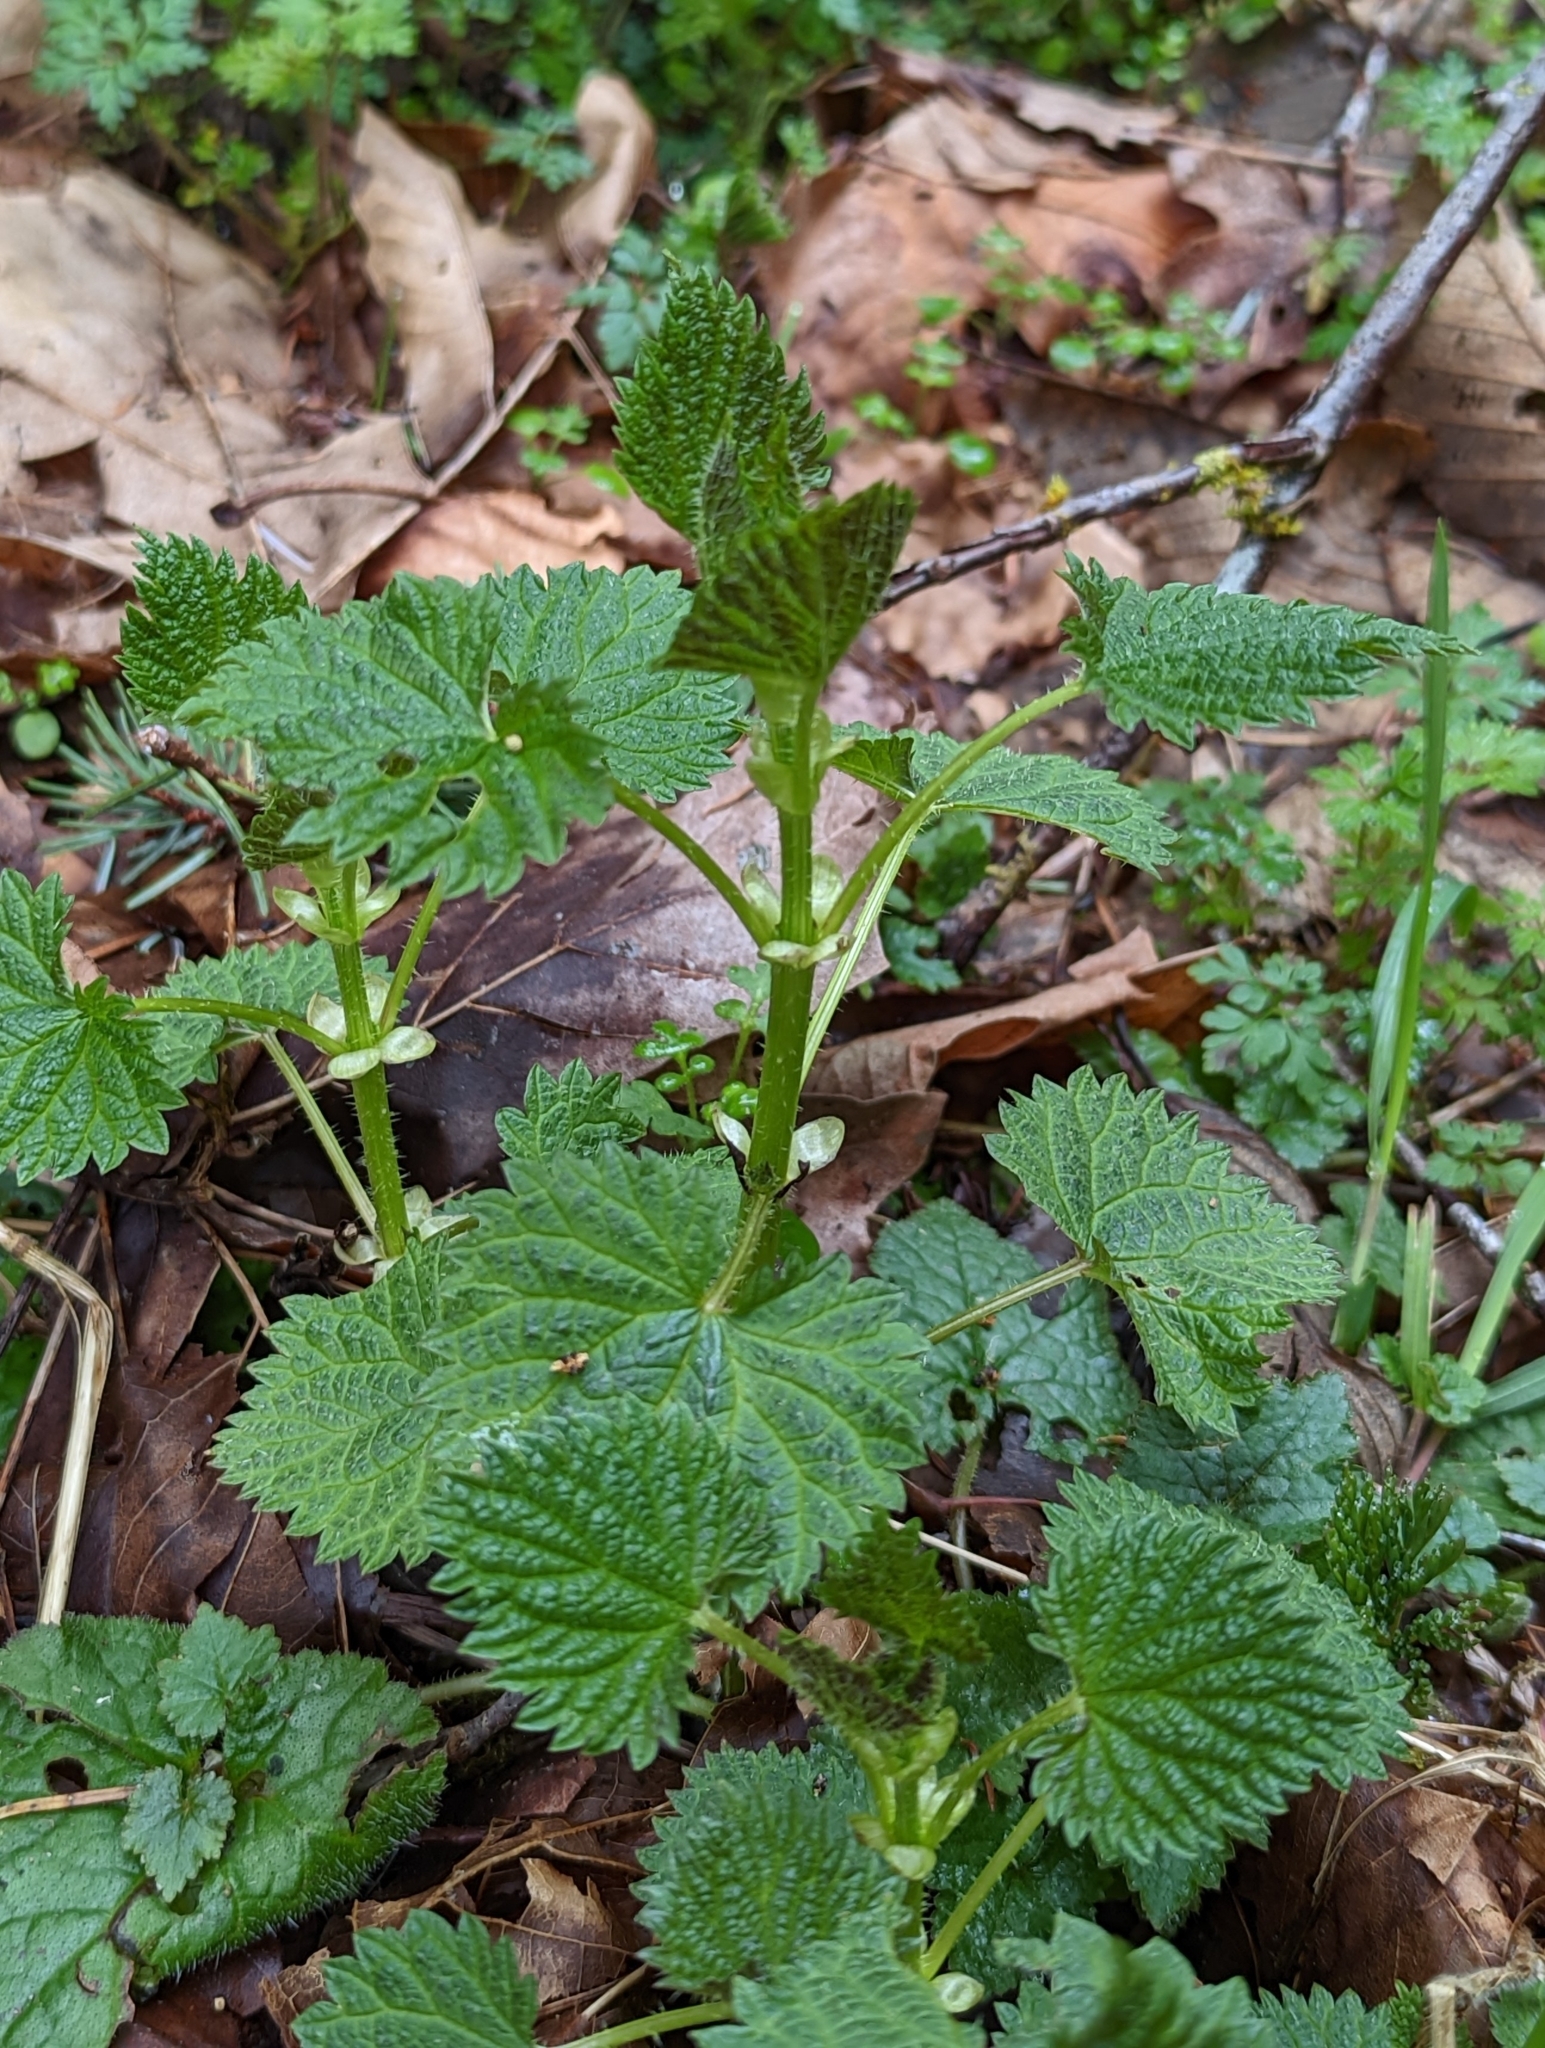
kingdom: Plantae
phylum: Tracheophyta
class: Magnoliopsida
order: Rosales
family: Urticaceae
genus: Urtica
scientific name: Urtica gracilis
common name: Slender stinging nettle
